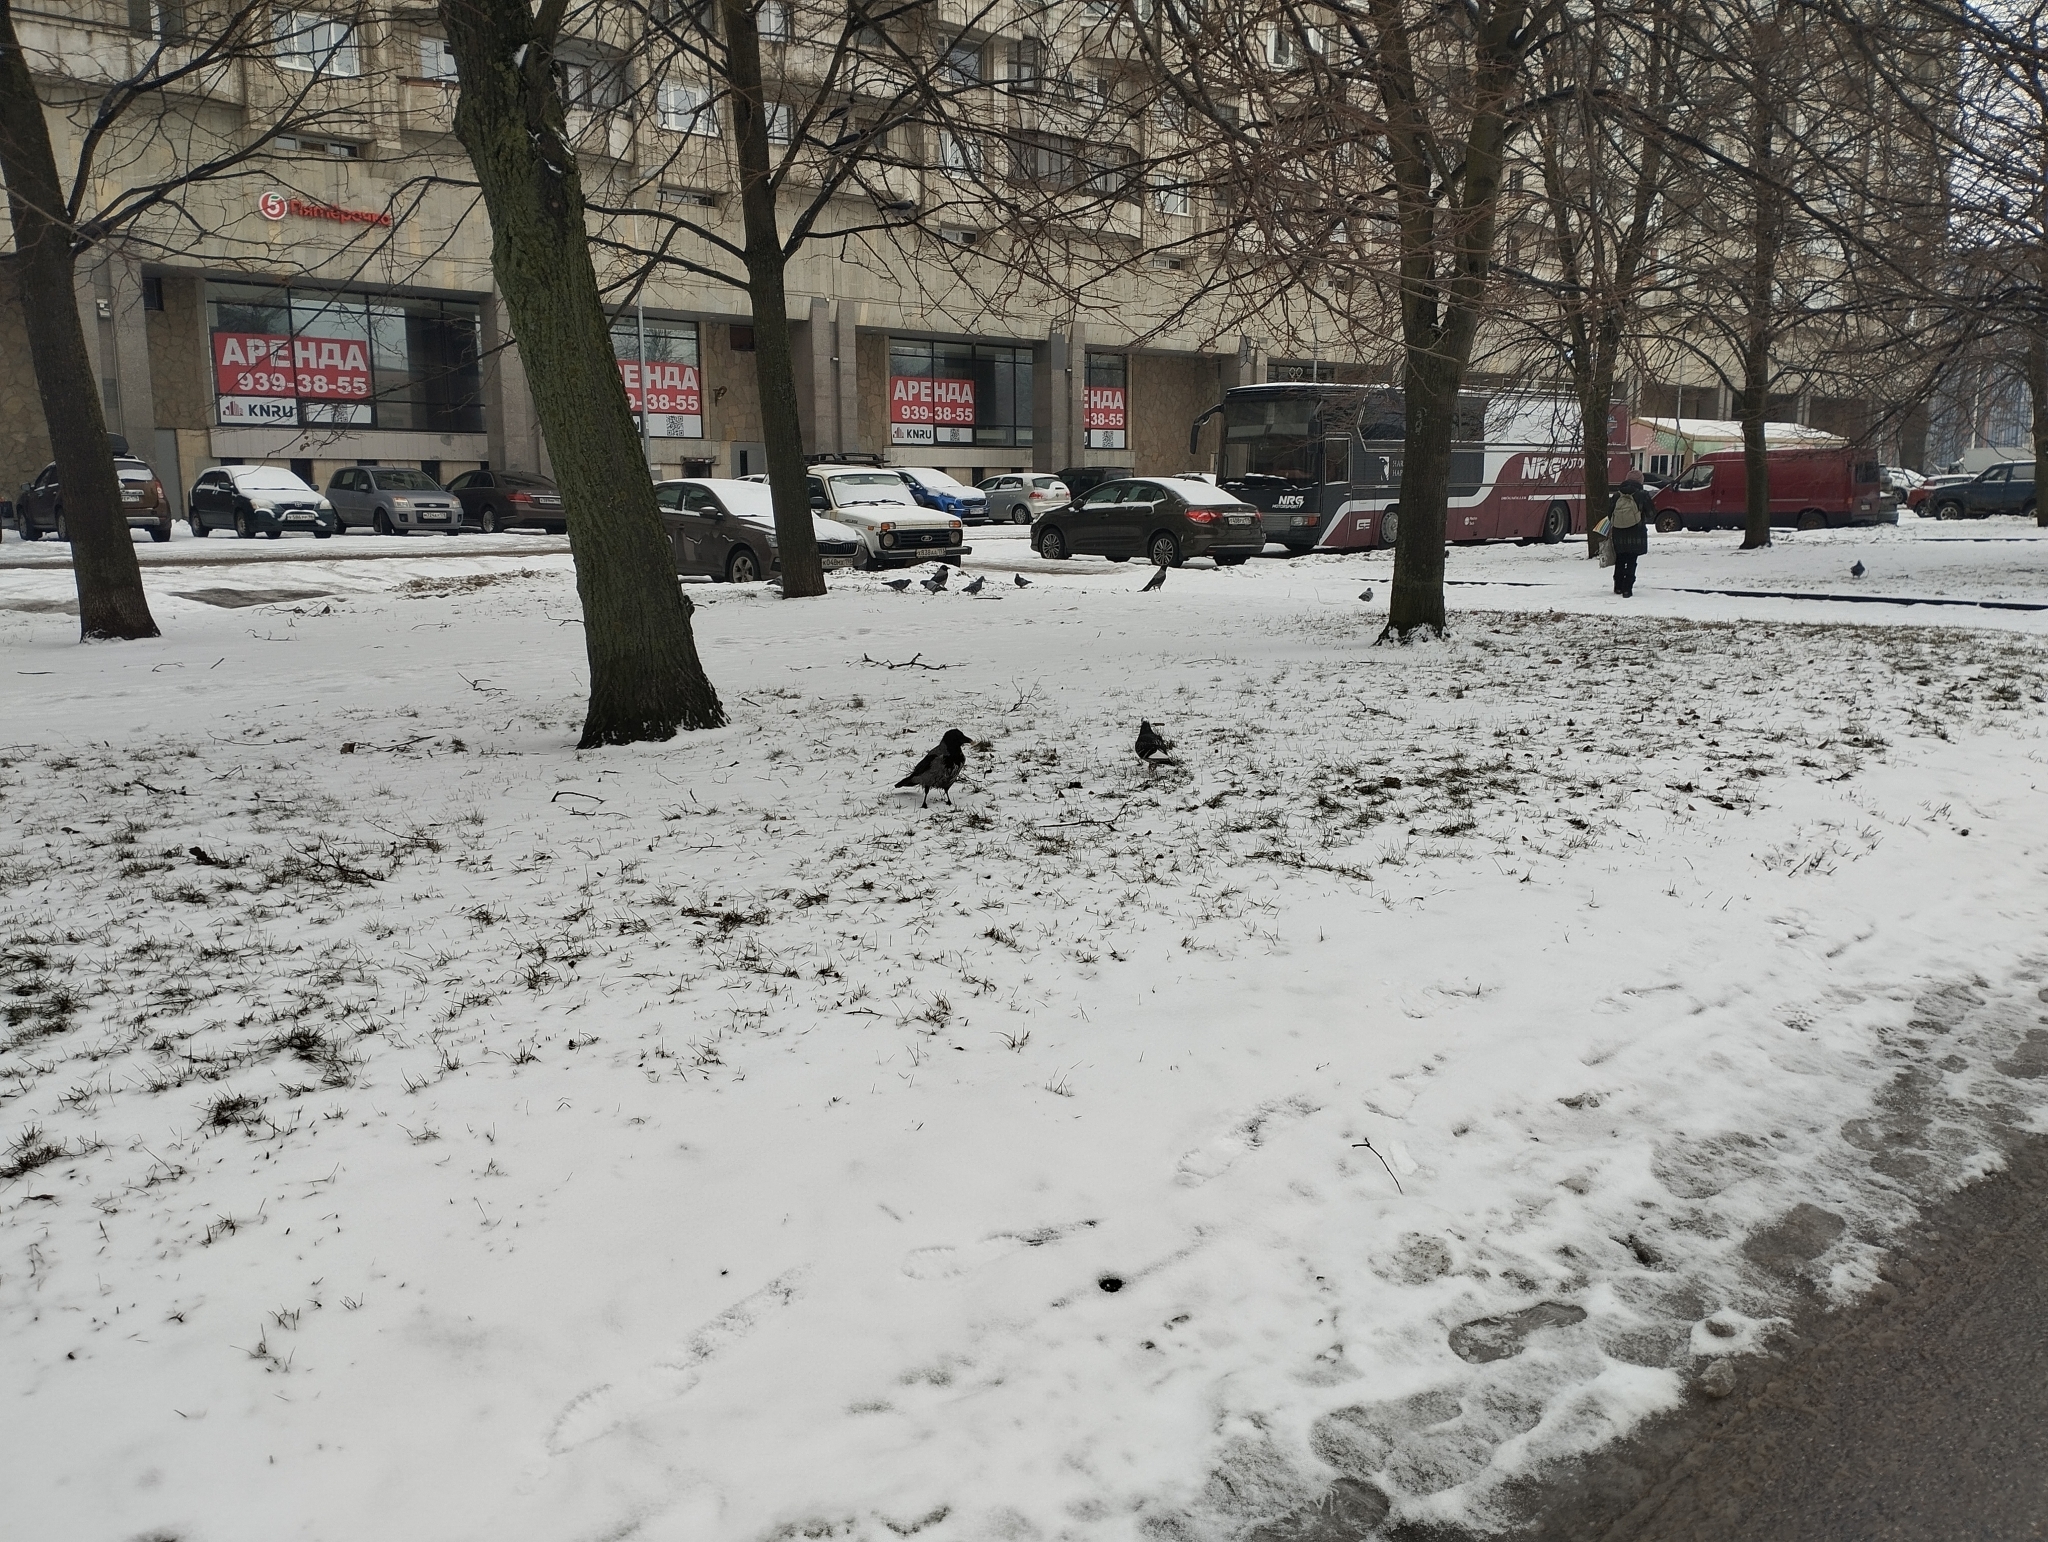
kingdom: Animalia
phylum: Chordata
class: Aves
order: Passeriformes
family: Corvidae
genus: Corvus
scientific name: Corvus cornix
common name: Hooded crow
